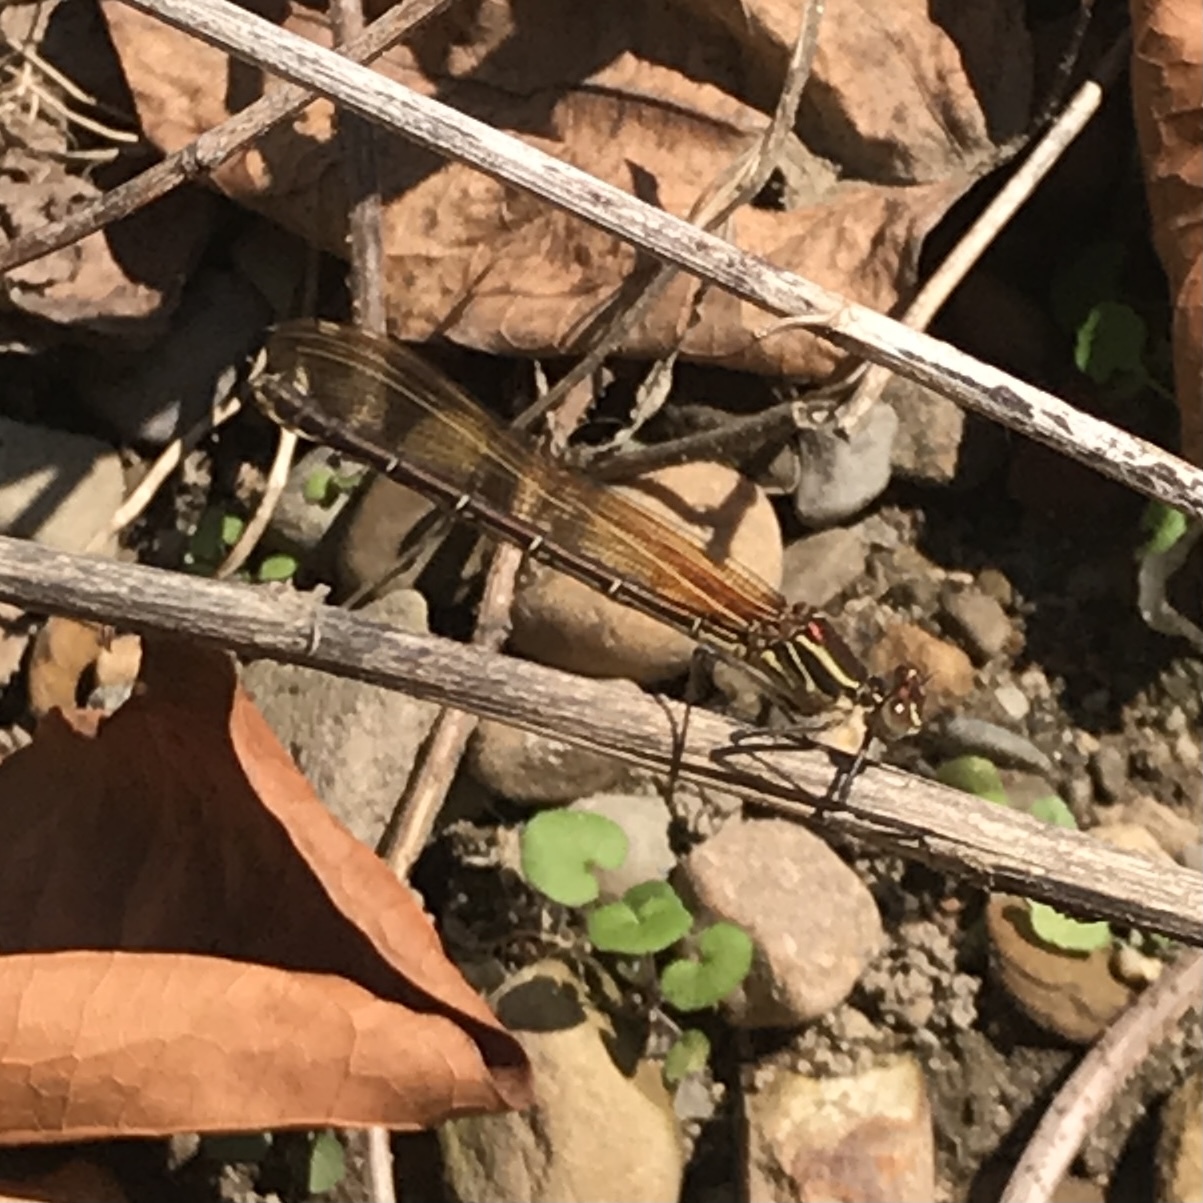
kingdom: Animalia
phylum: Arthropoda
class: Insecta
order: Odonata
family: Calopterygidae
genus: Hetaerina
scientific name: Hetaerina americana
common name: American rubyspot
